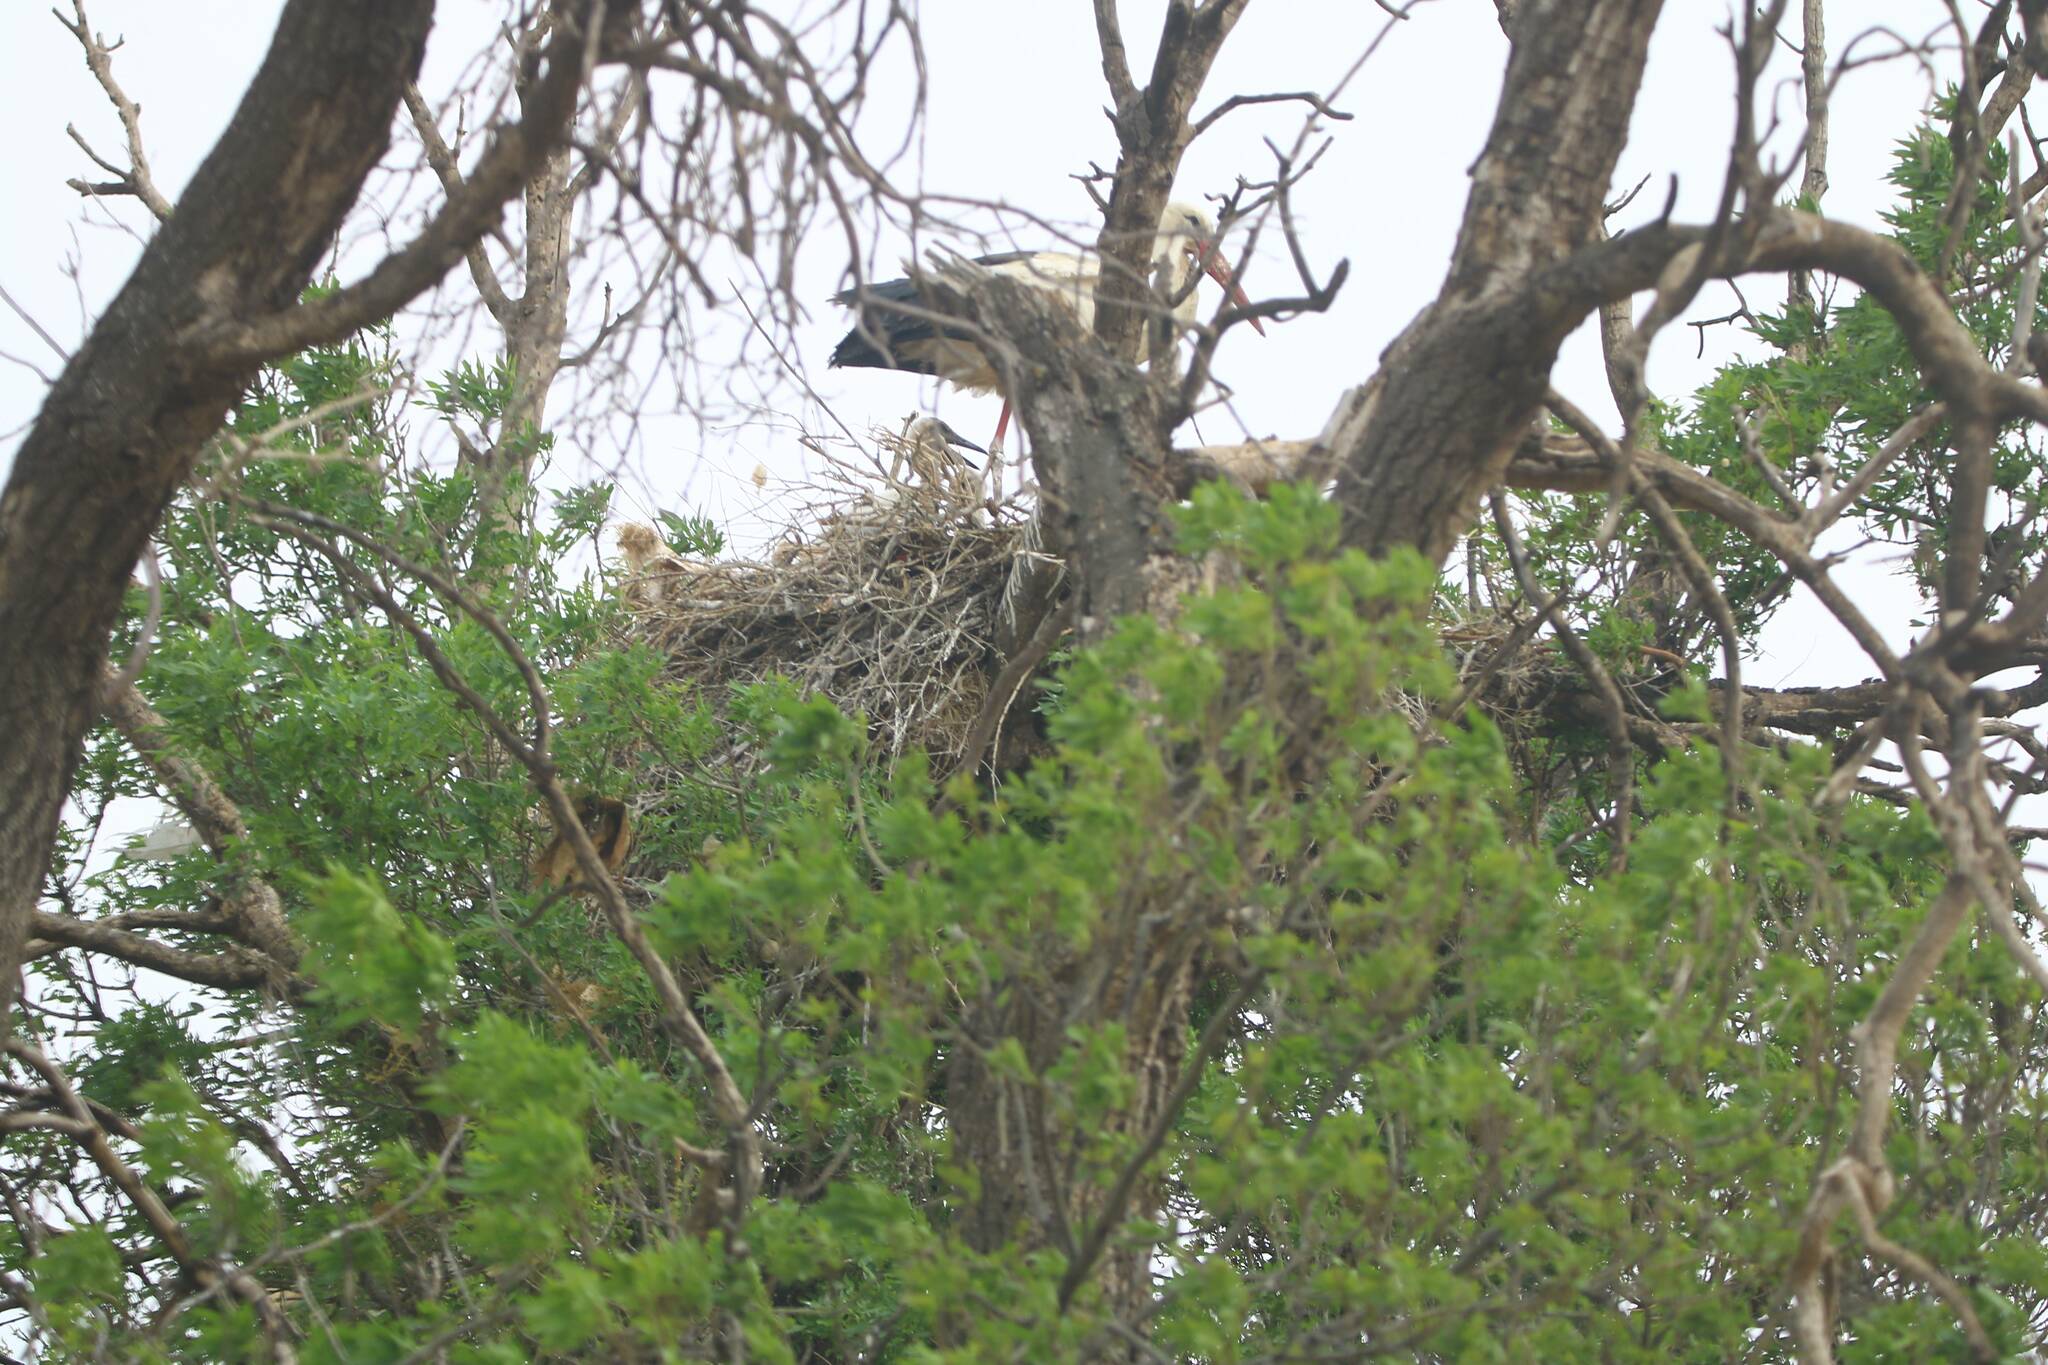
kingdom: Animalia
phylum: Chordata
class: Aves
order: Ciconiiformes
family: Ciconiidae
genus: Ciconia
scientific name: Ciconia ciconia
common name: White stork
